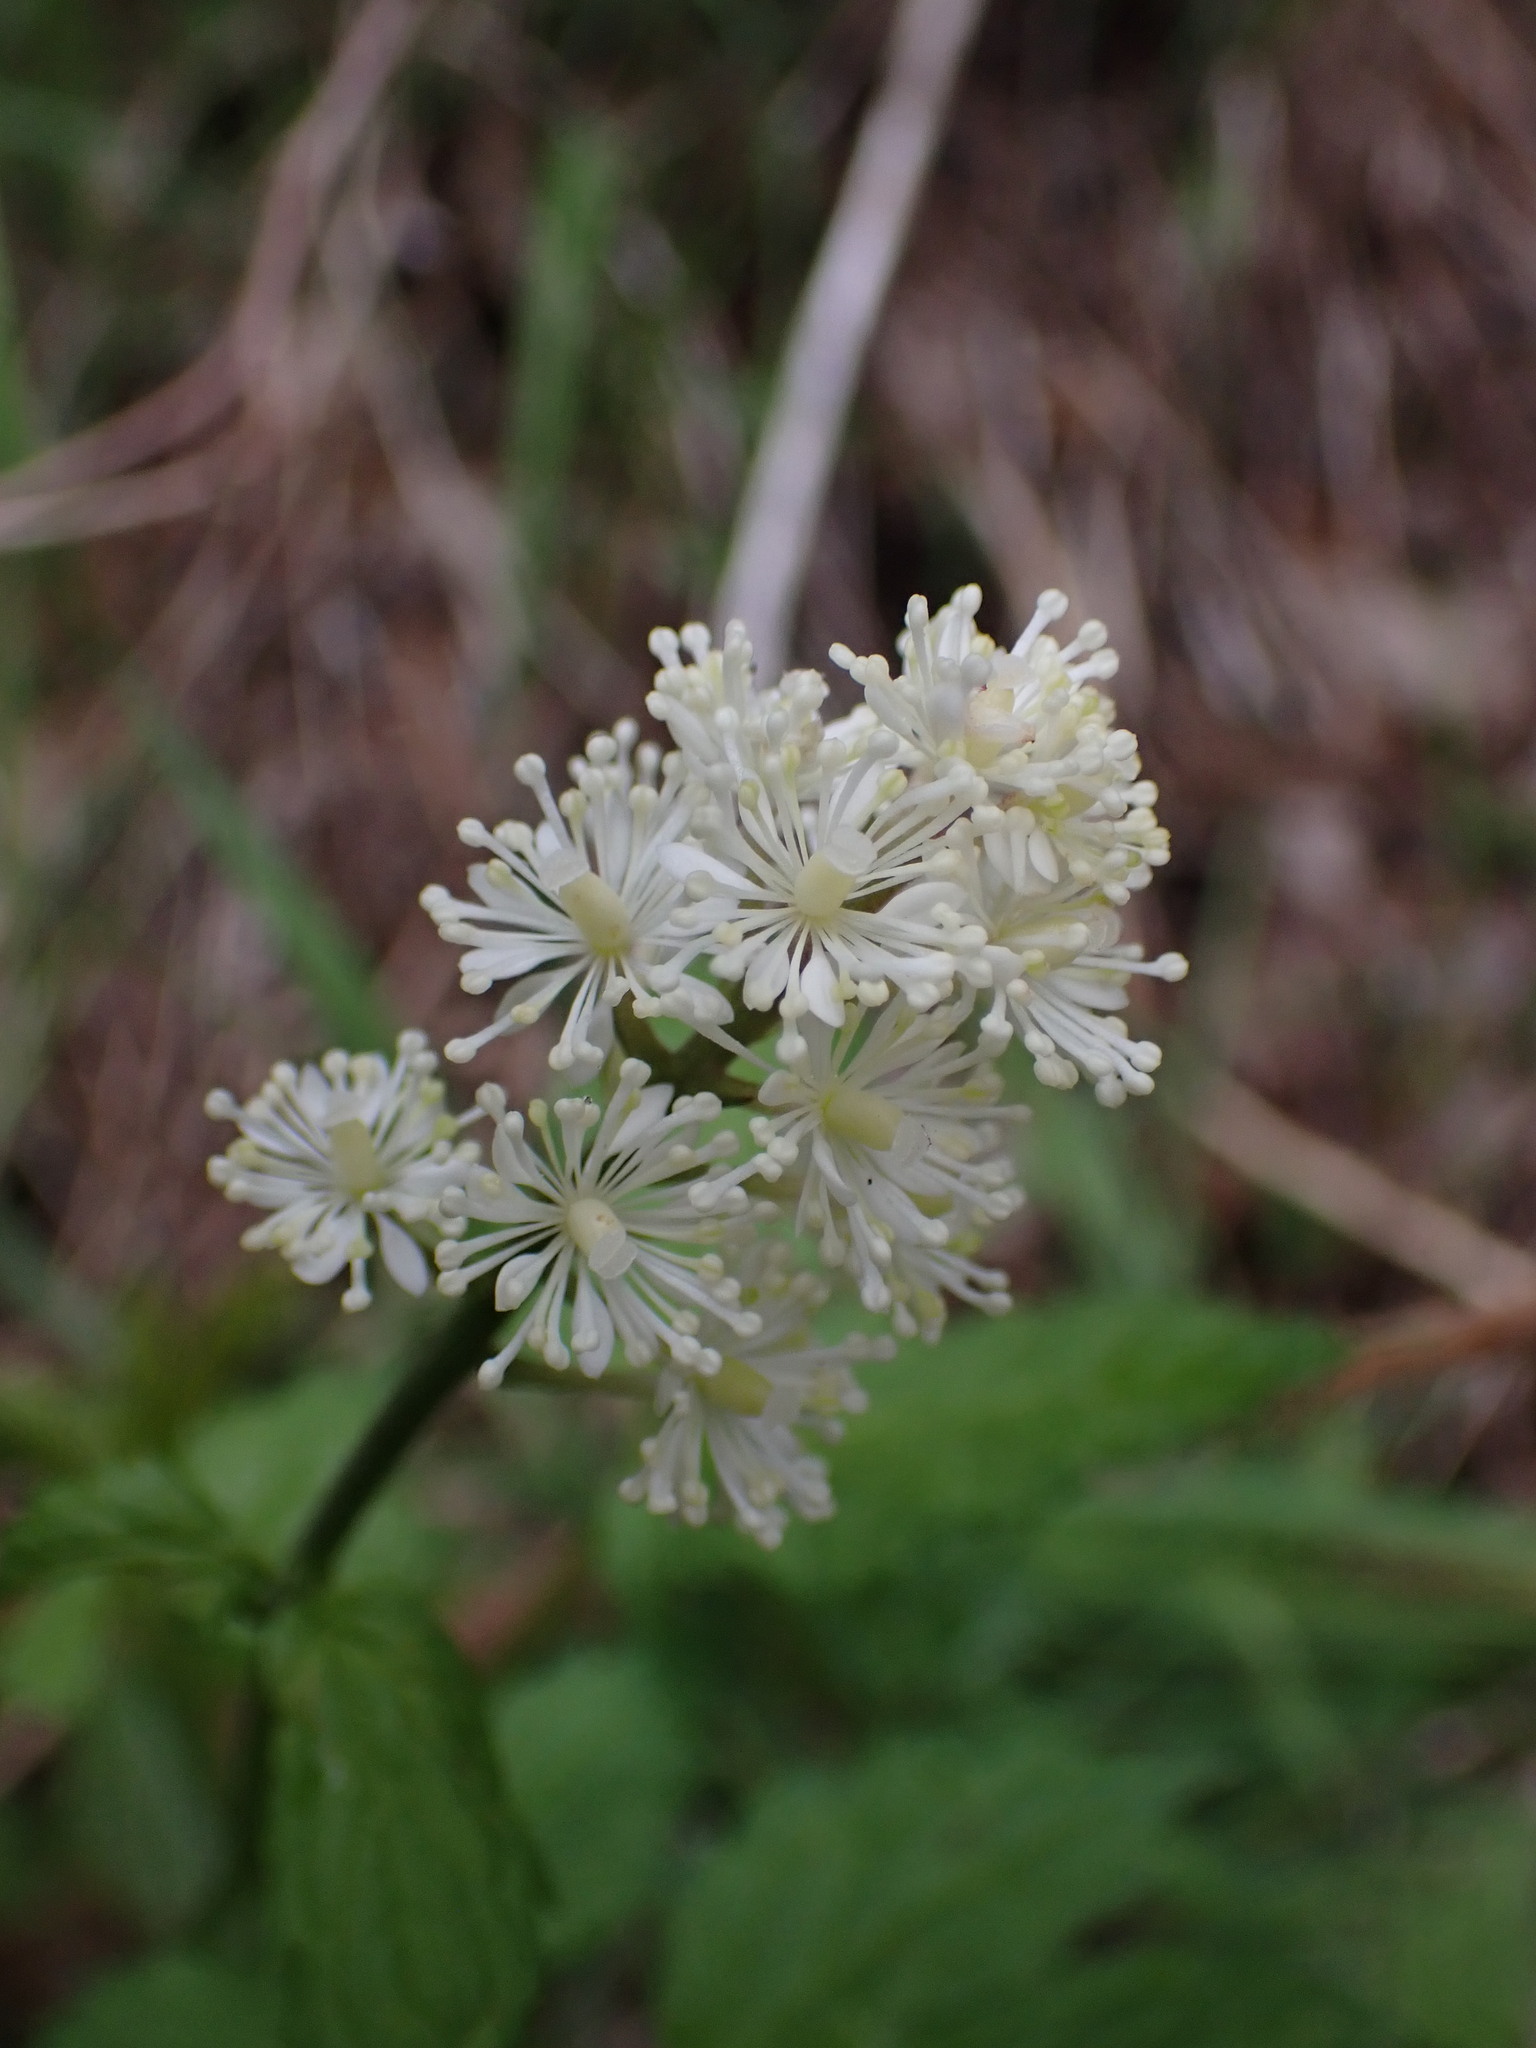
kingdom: Plantae
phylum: Tracheophyta
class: Magnoliopsida
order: Ranunculales
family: Ranunculaceae
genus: Actaea
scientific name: Actaea rubra
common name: Red baneberry
